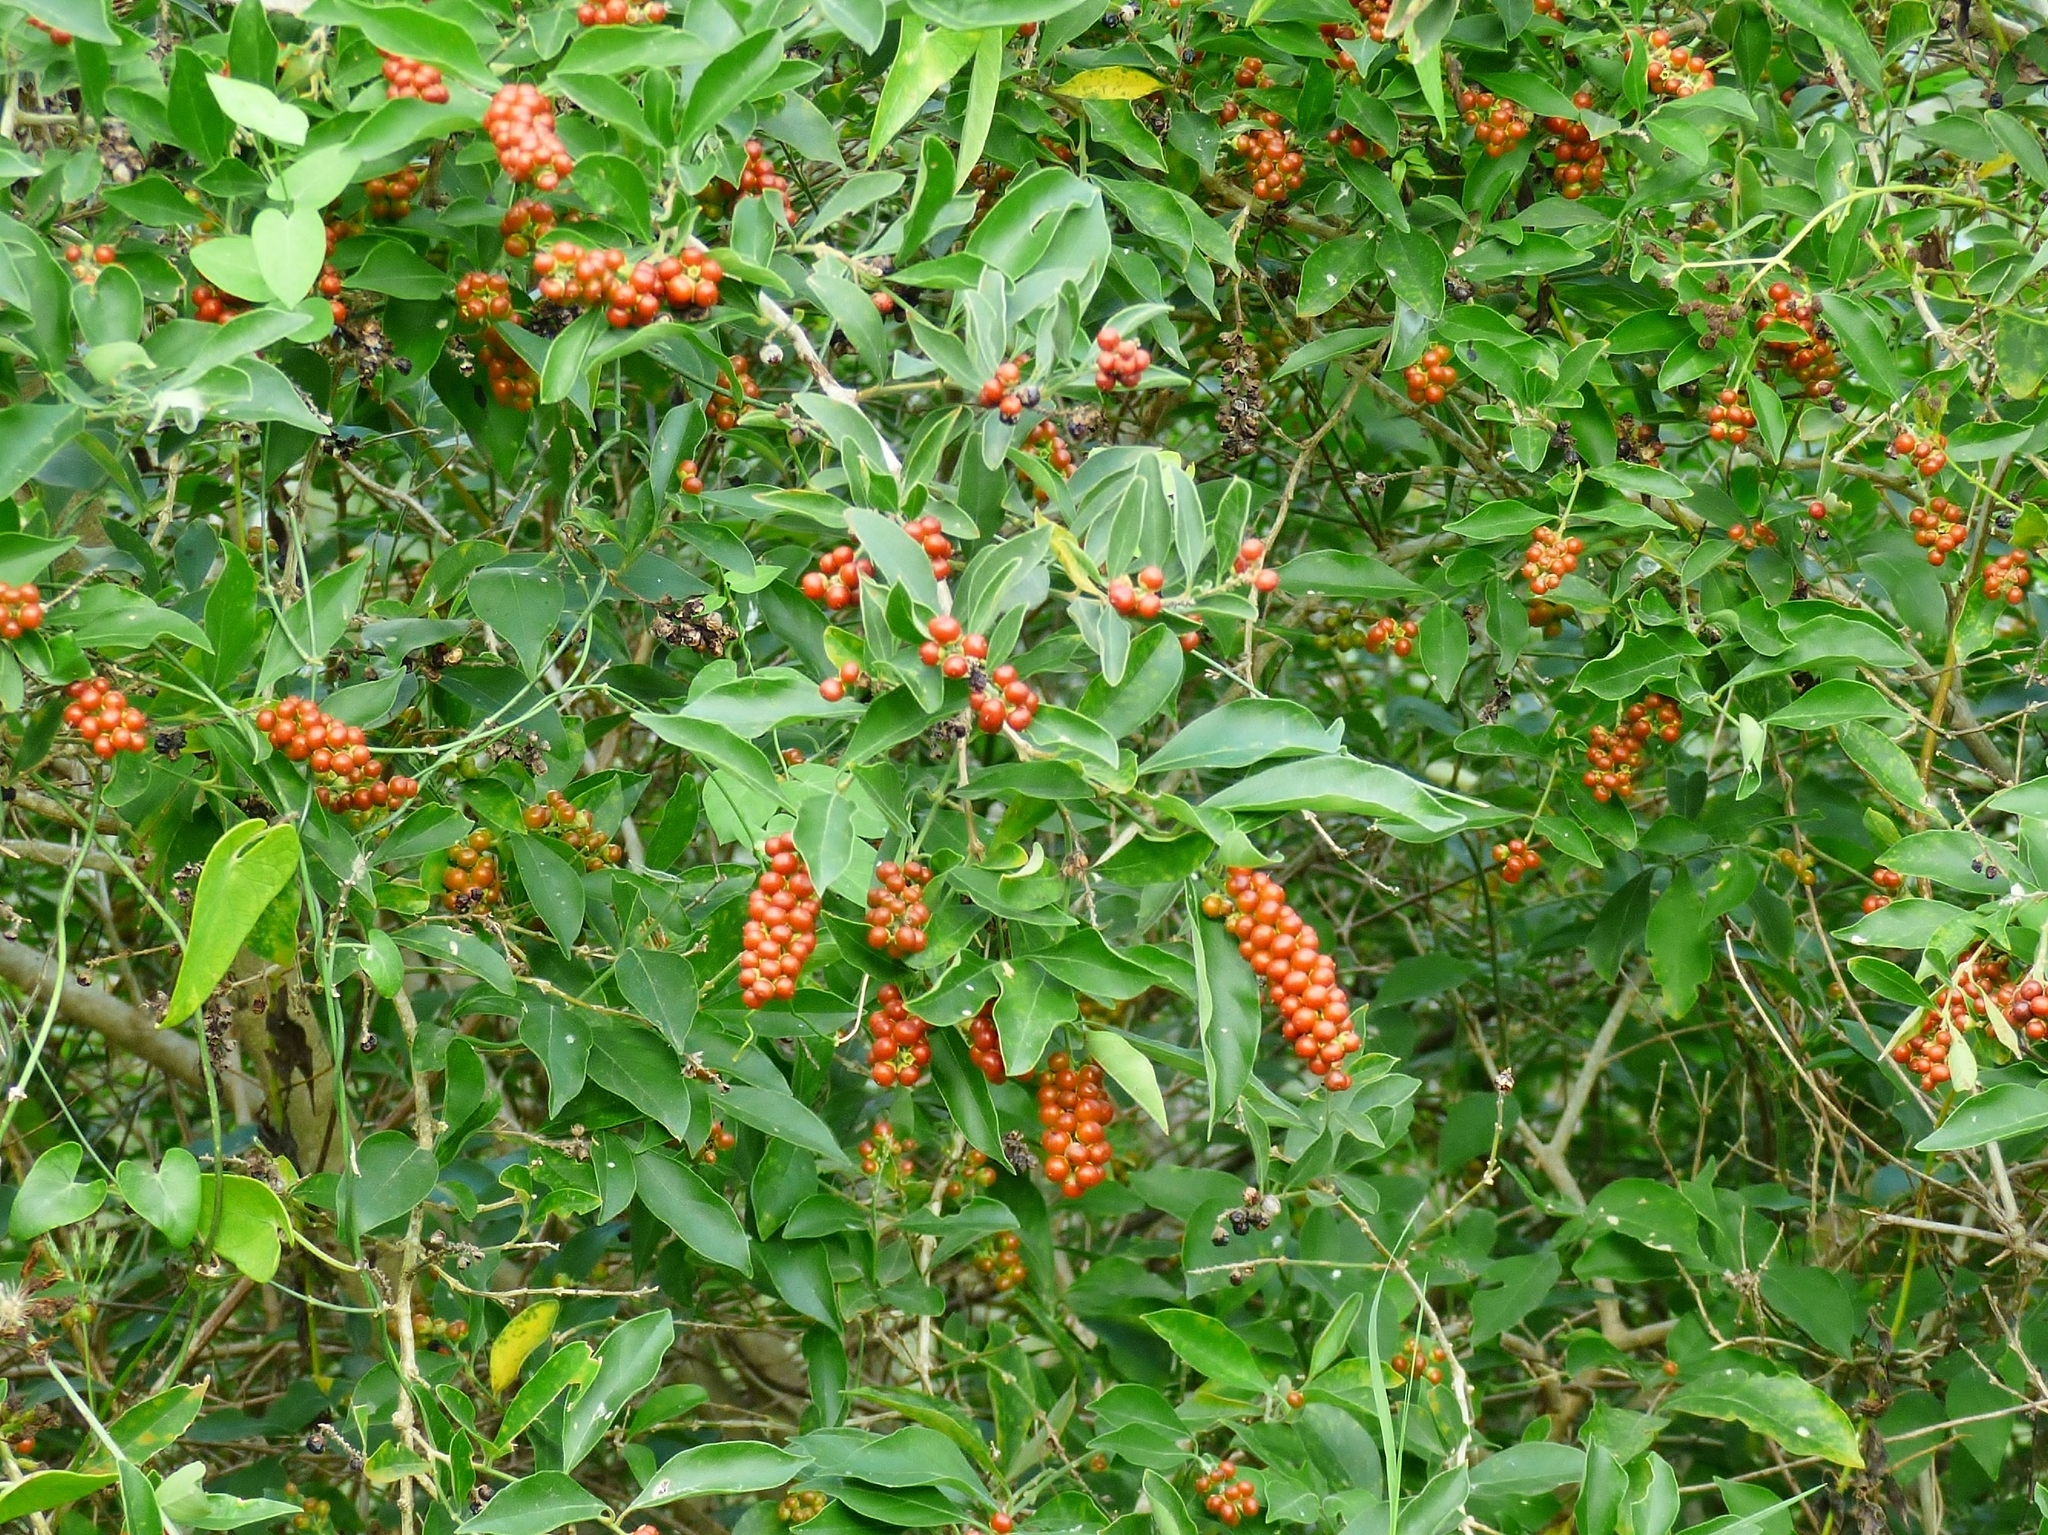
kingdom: Plantae
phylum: Tracheophyta
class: Magnoliopsida
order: Lamiales
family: Verbenaceae
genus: Citharexylum
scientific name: Citharexylum berlandieri
